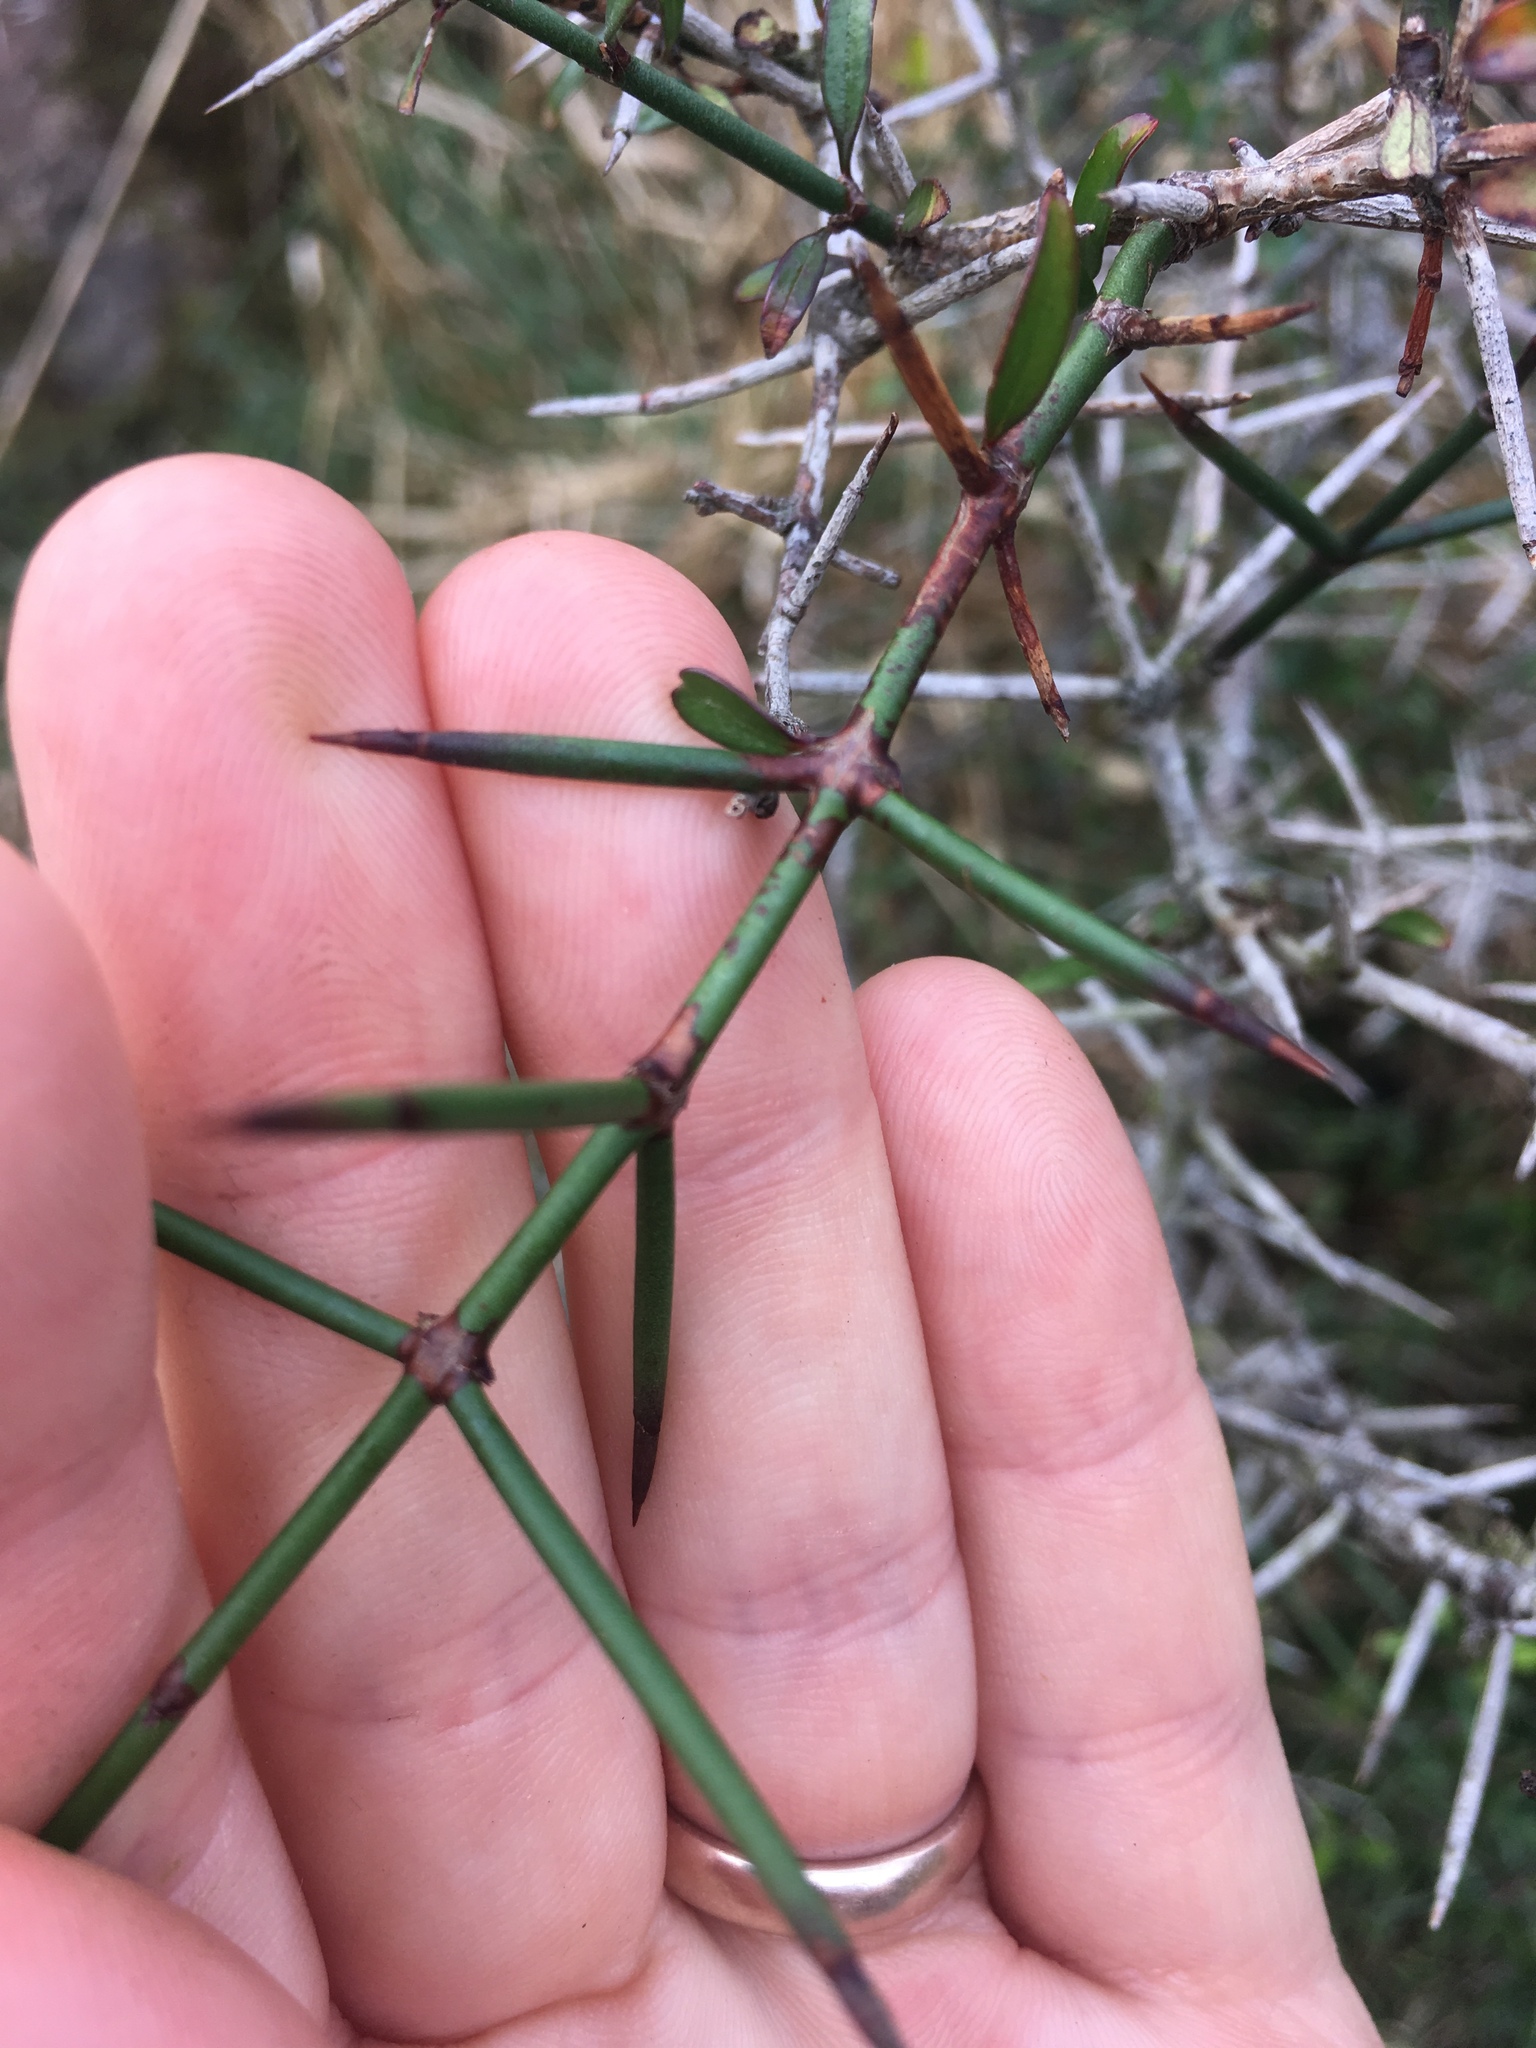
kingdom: Plantae
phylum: Tracheophyta
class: Magnoliopsida
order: Rosales
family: Rhamnaceae
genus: Discaria
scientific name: Discaria toumatou
